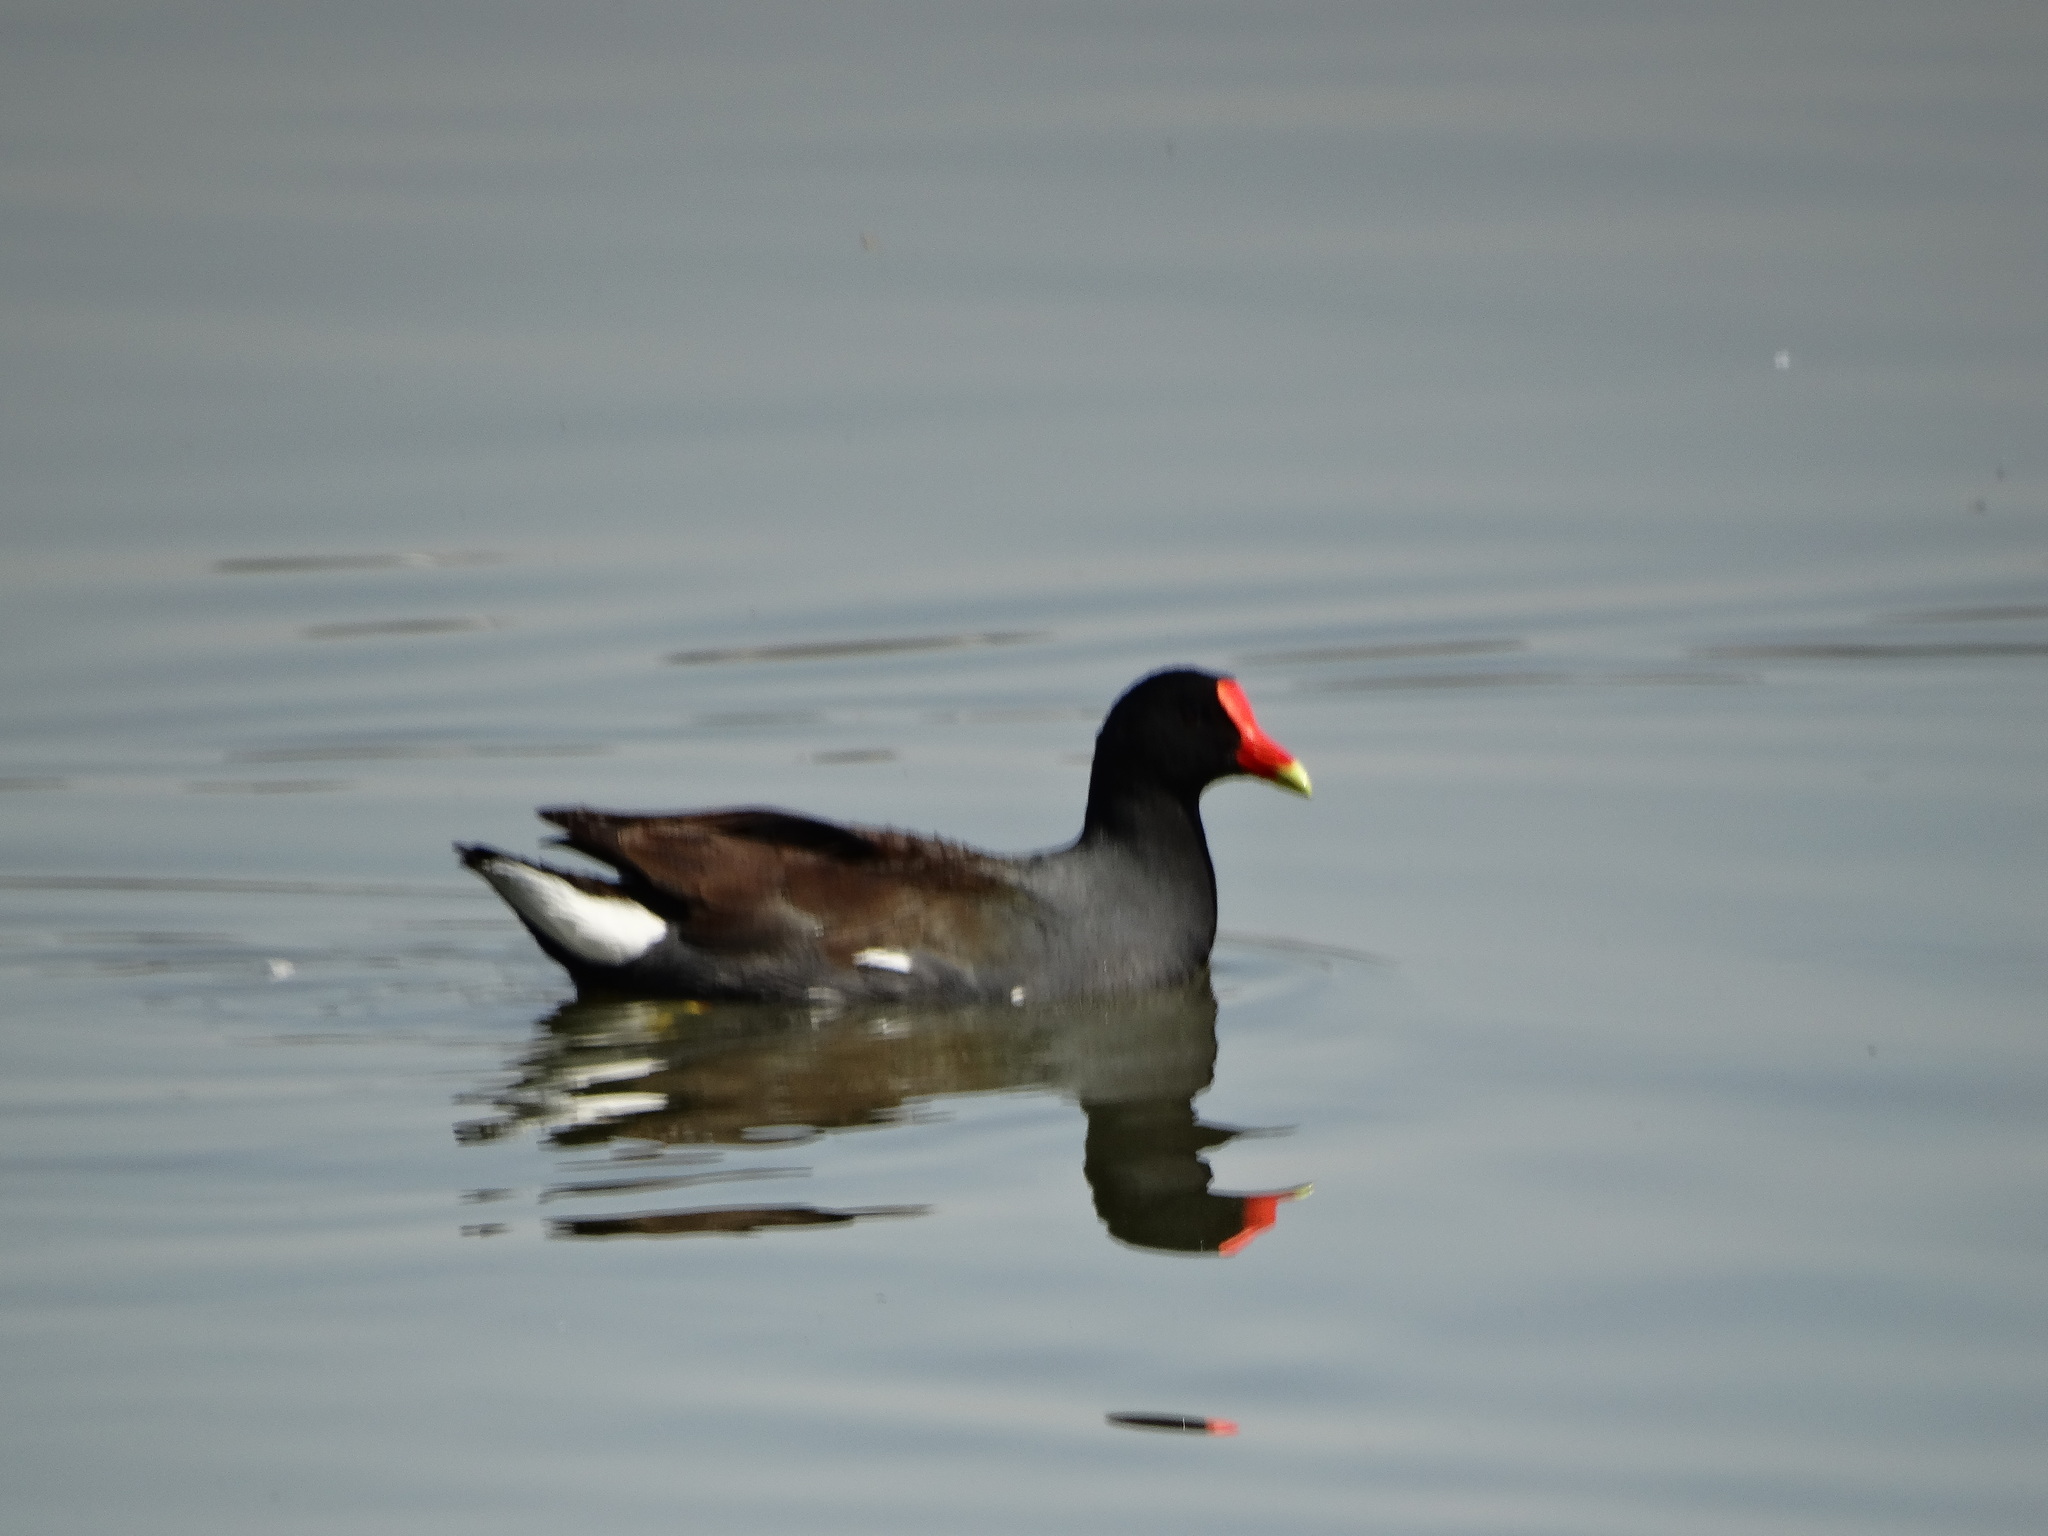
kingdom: Animalia
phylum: Chordata
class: Aves
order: Gruiformes
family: Rallidae
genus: Gallinula
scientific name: Gallinula chloropus
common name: Common moorhen
